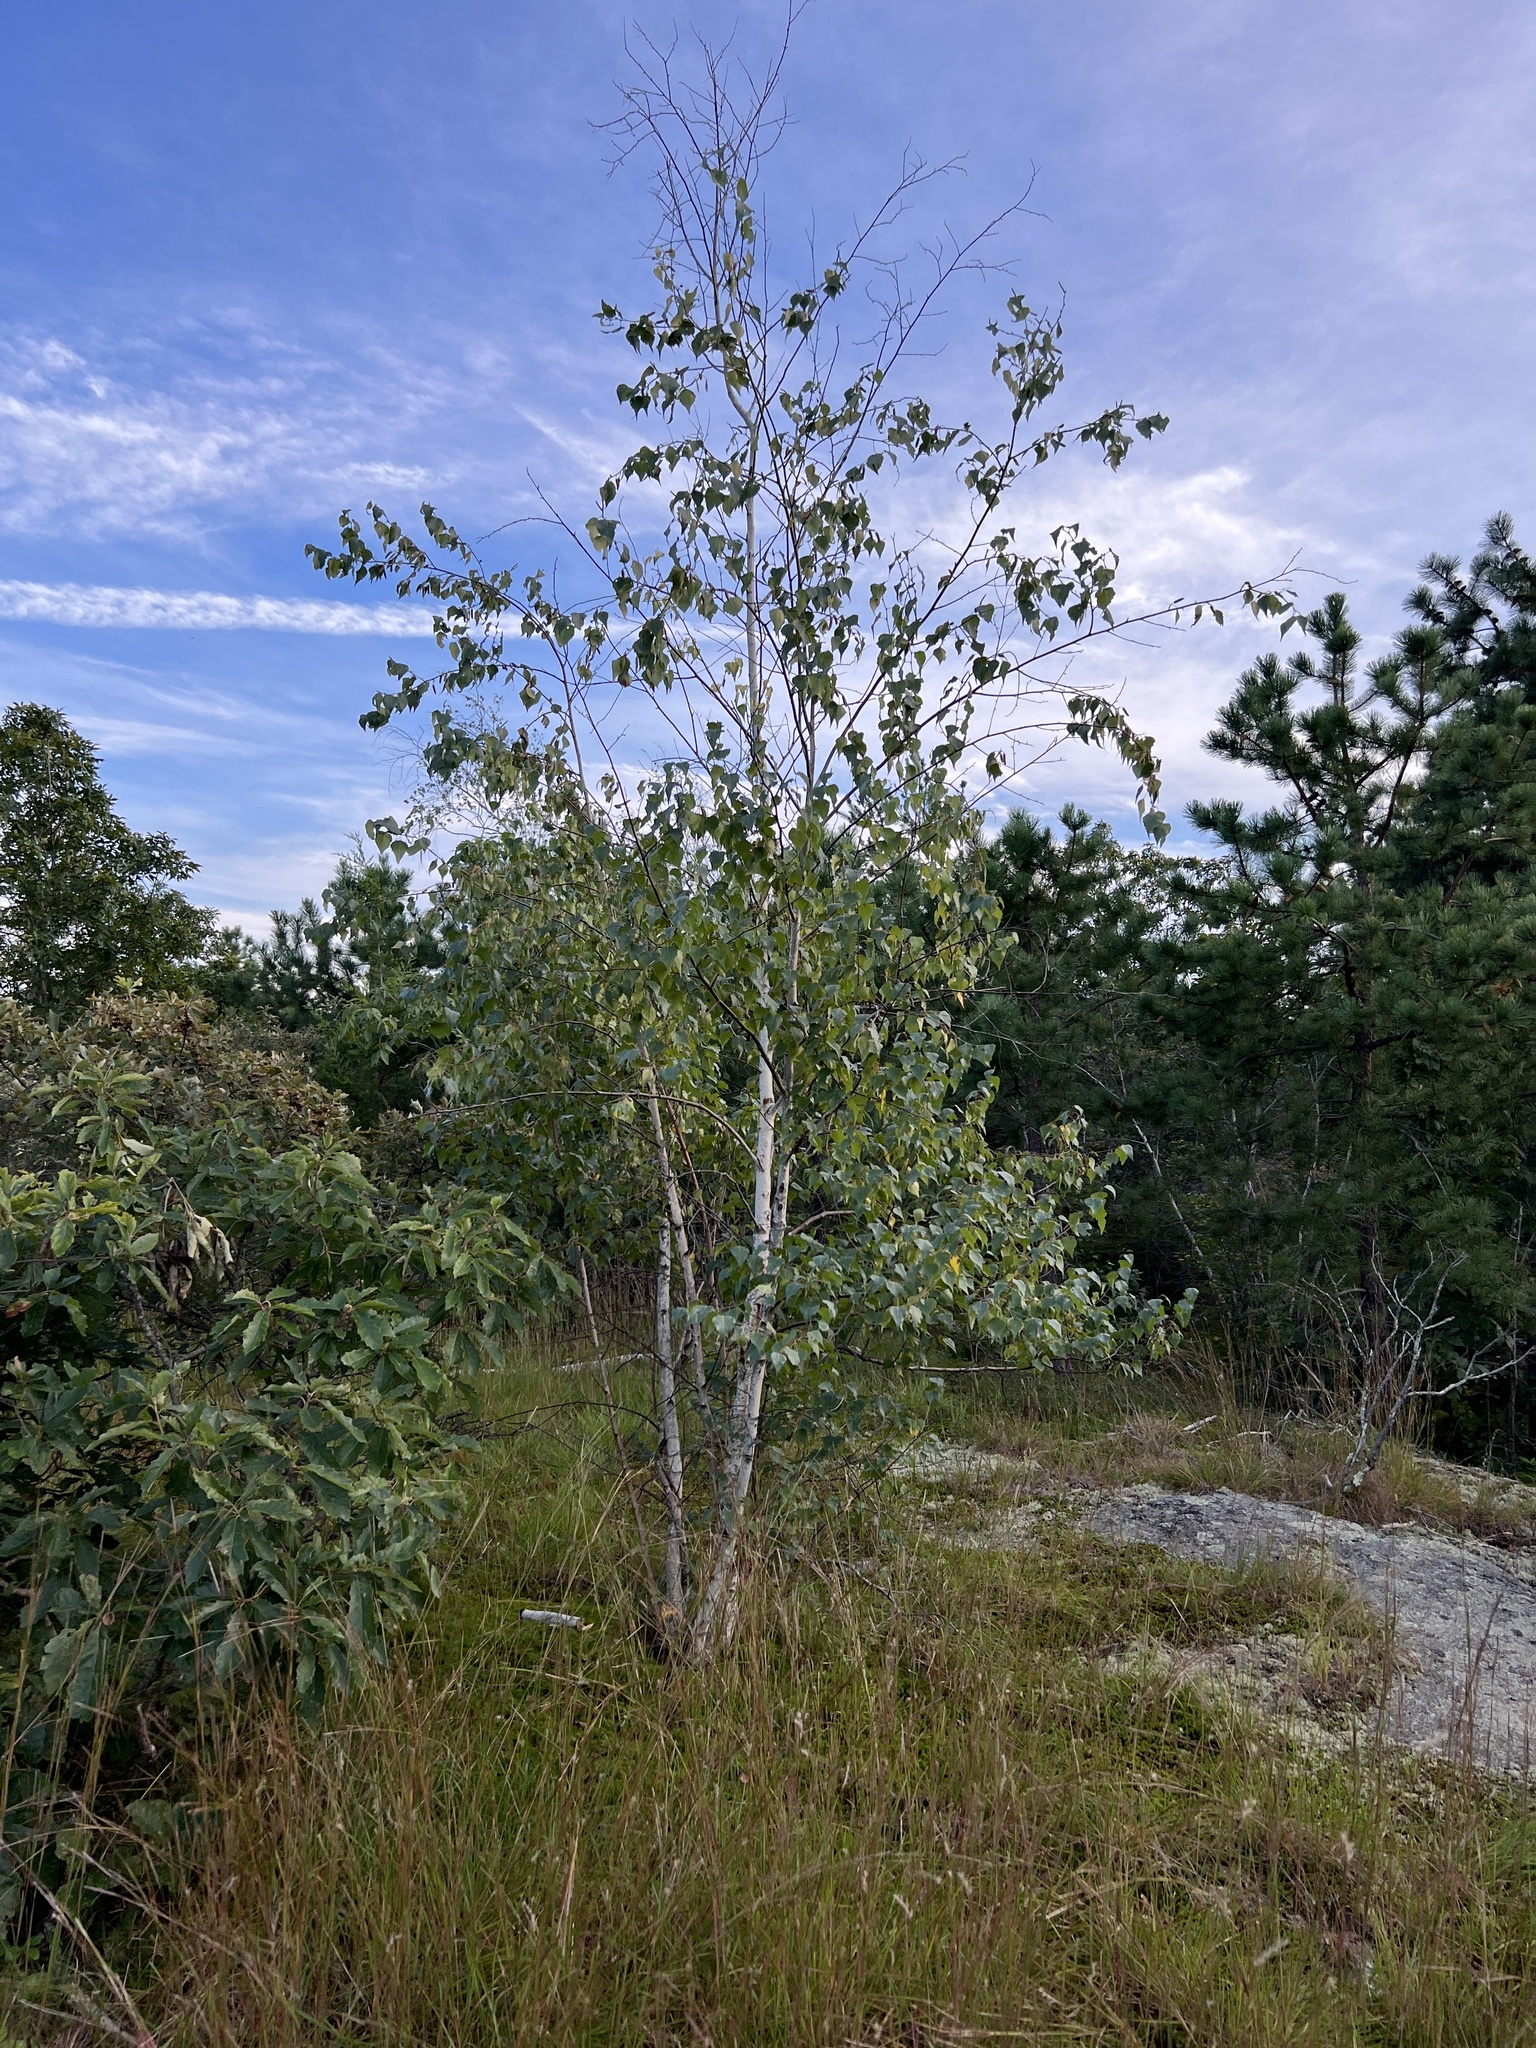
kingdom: Plantae
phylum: Tracheophyta
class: Magnoliopsida
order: Fagales
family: Betulaceae
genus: Betula
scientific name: Betula populifolia
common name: Fire birch
